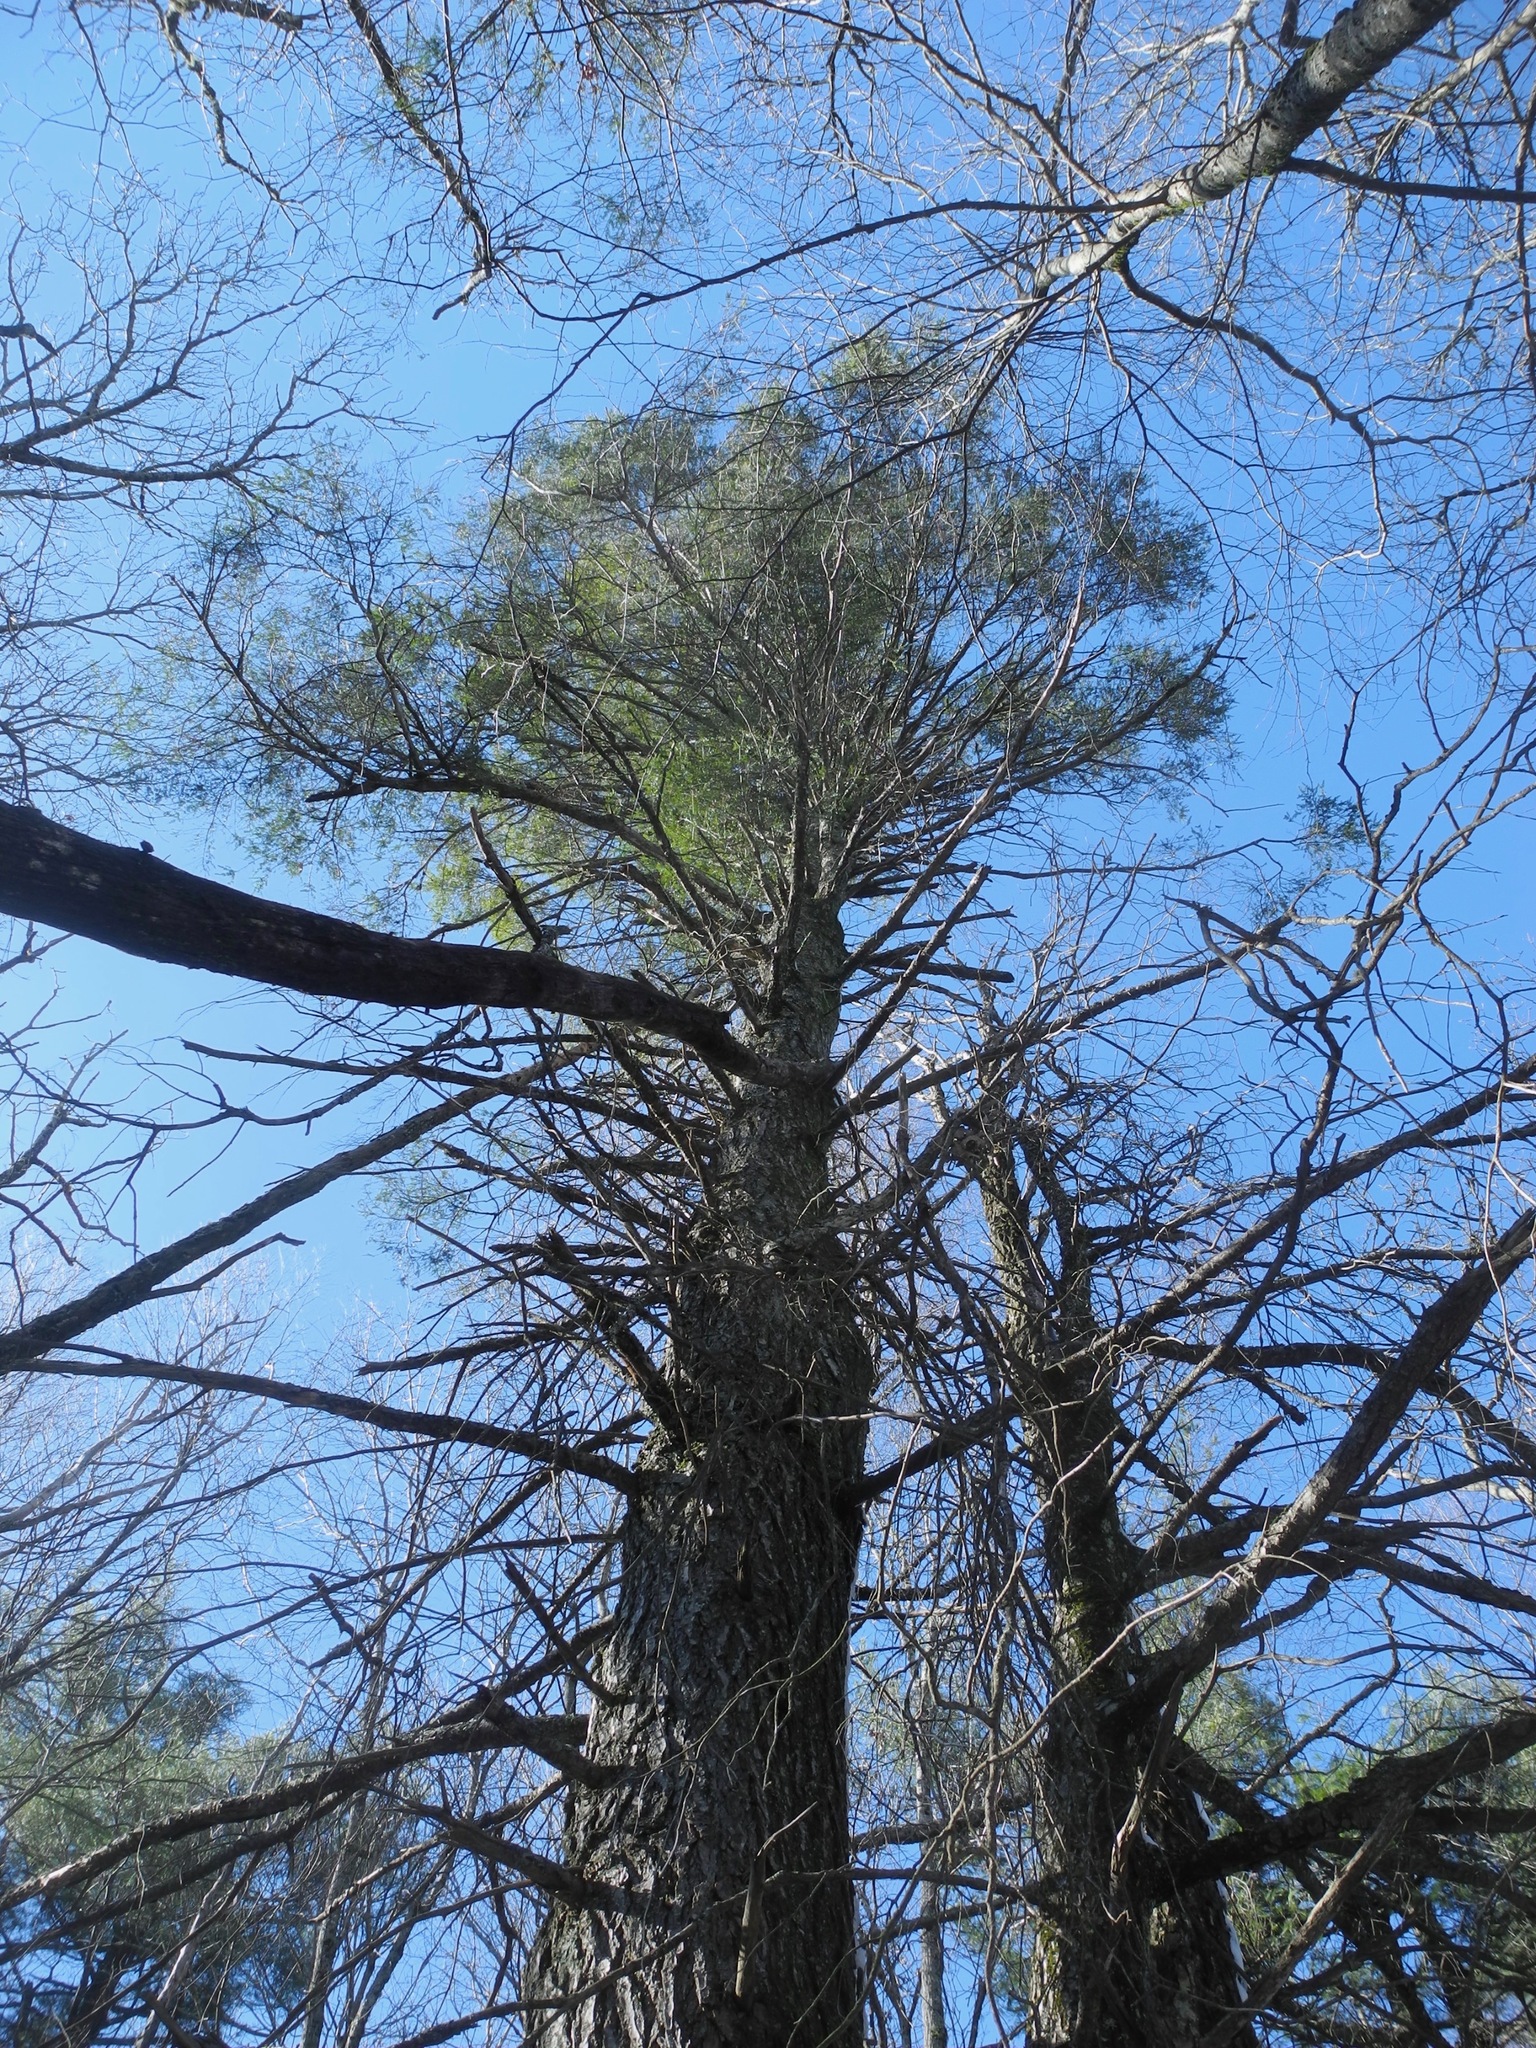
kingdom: Plantae
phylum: Tracheophyta
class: Pinopsida
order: Pinales
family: Pinaceae
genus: Tsuga
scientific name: Tsuga canadensis
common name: Eastern hemlock
